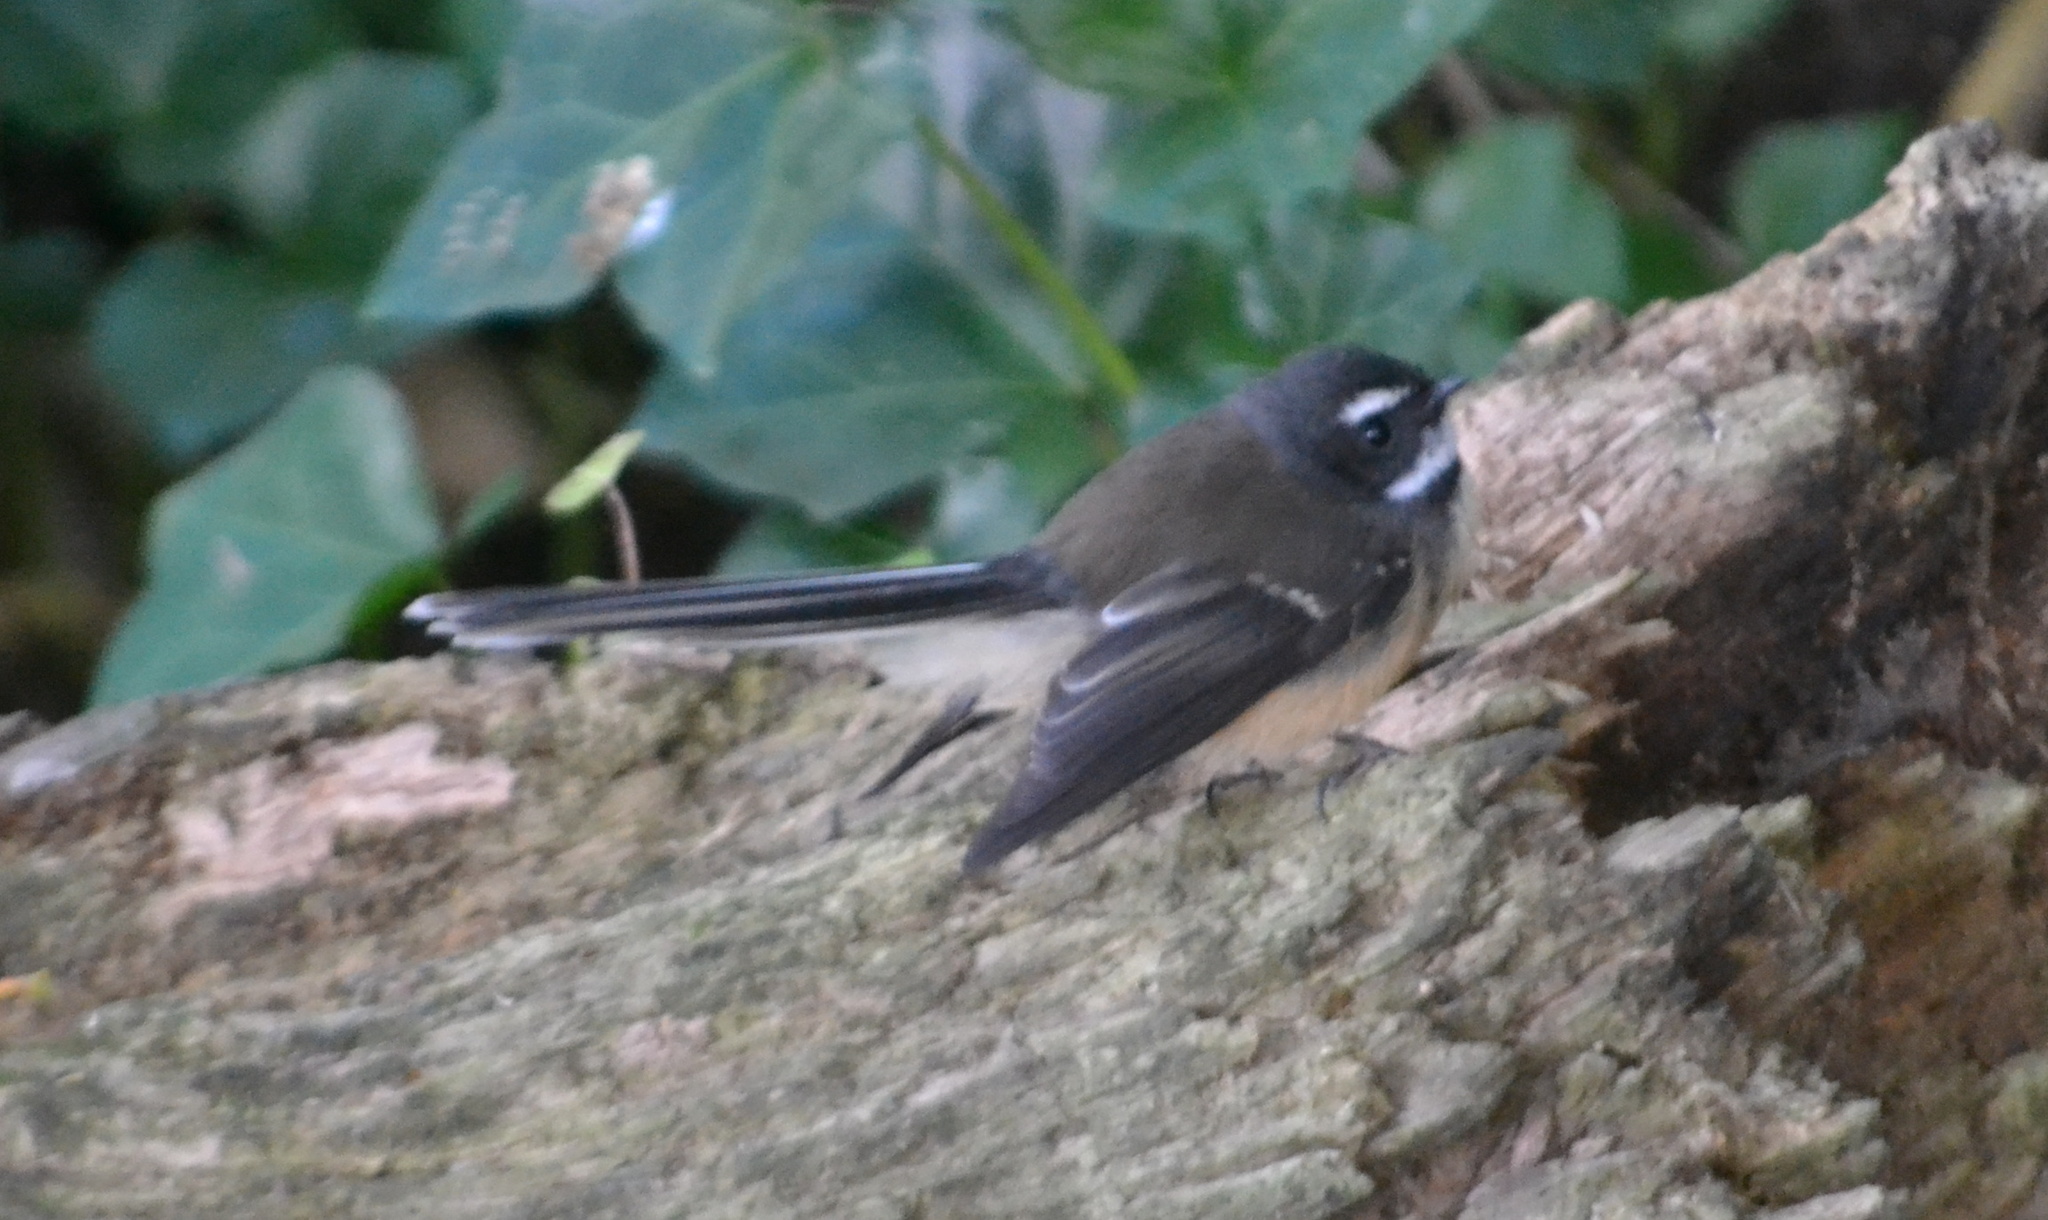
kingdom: Animalia
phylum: Chordata
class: Aves
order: Passeriformes
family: Rhipiduridae
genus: Rhipidura
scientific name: Rhipidura fuliginosa
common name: New zealand fantail
